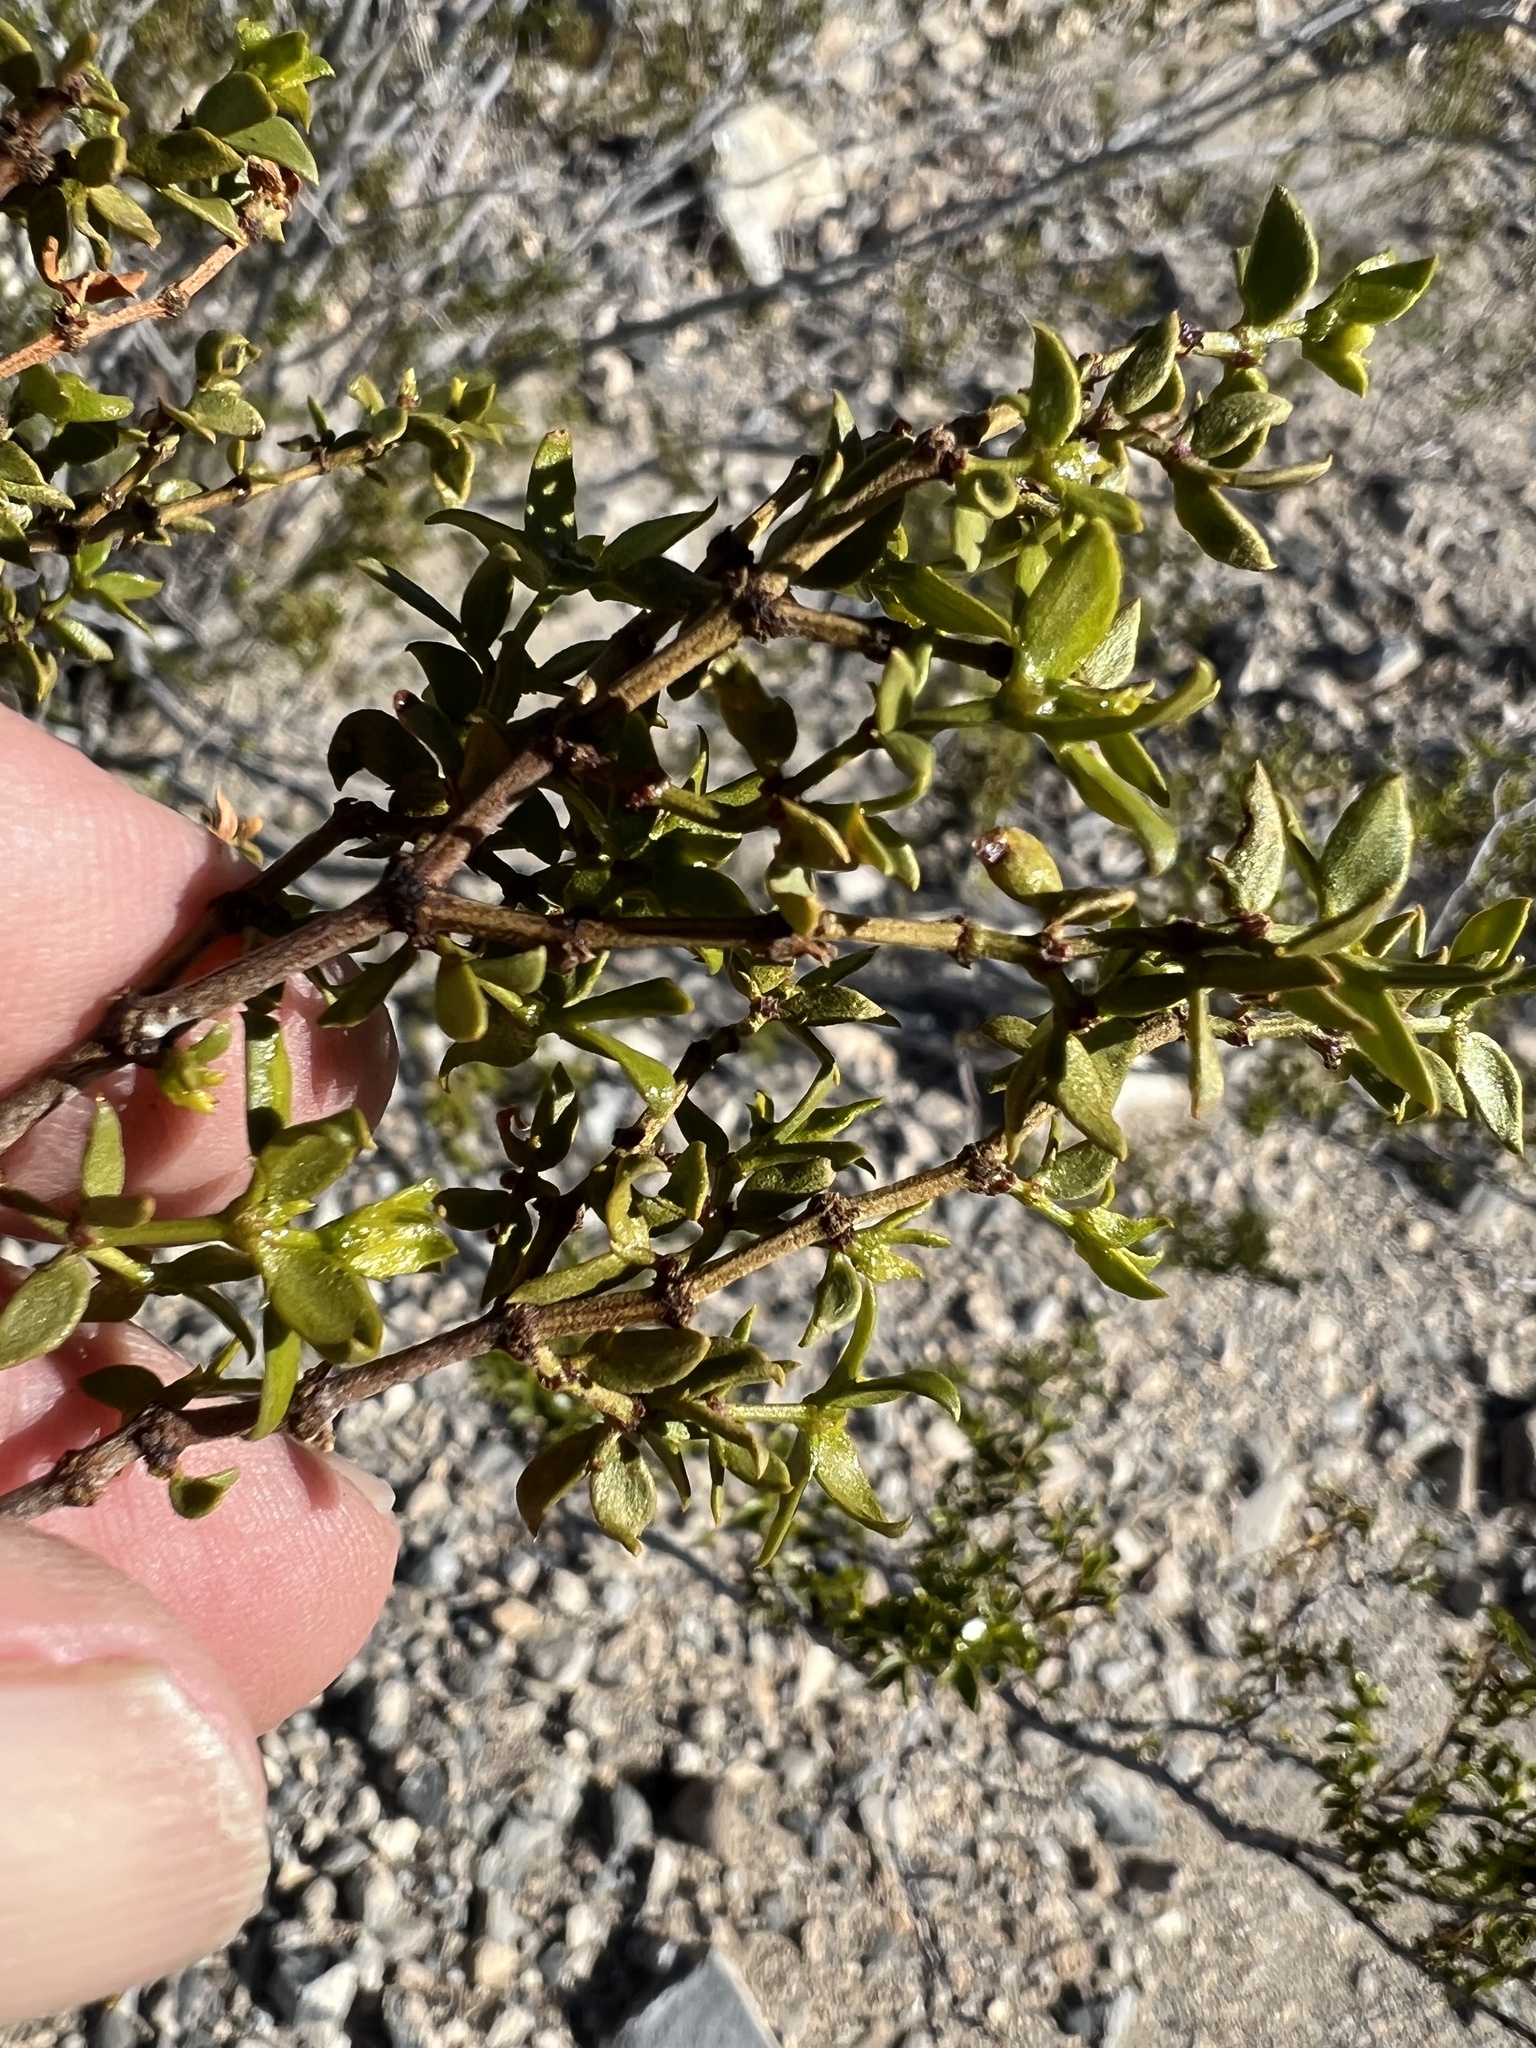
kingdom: Plantae
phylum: Tracheophyta
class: Magnoliopsida
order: Zygophyllales
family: Zygophyllaceae
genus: Larrea
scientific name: Larrea tridentata
